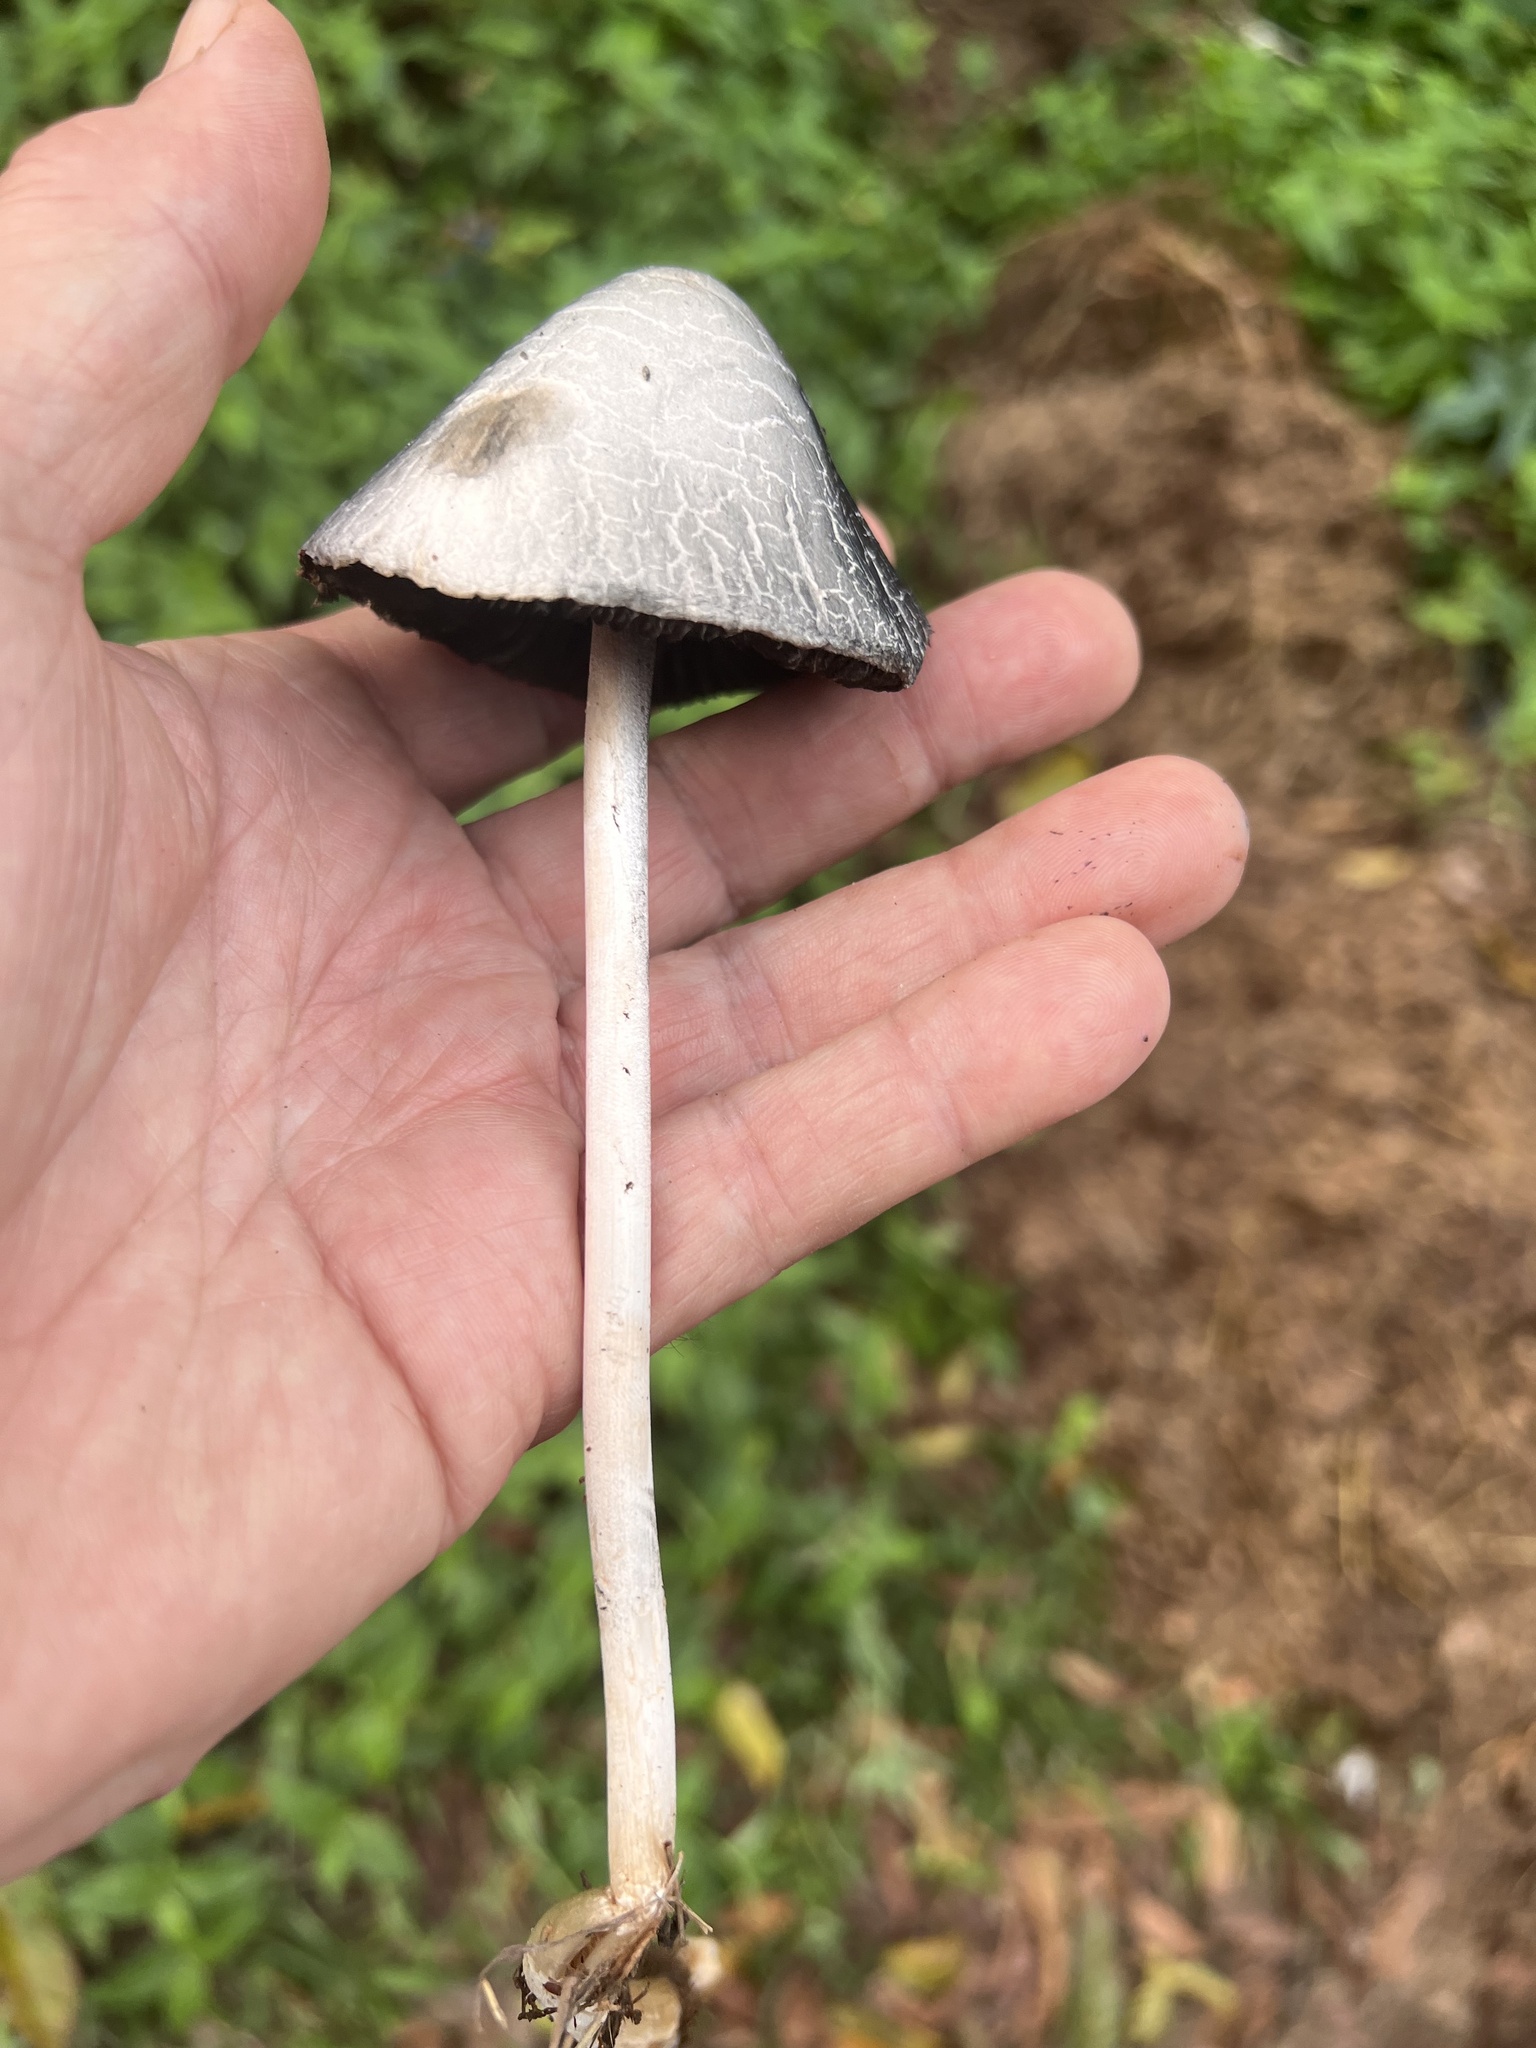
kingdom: Fungi
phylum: Basidiomycota
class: Agaricomycetes
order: Agaricales
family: Bolbitiaceae
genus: Panaeolus
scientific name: Panaeolus antillarum
